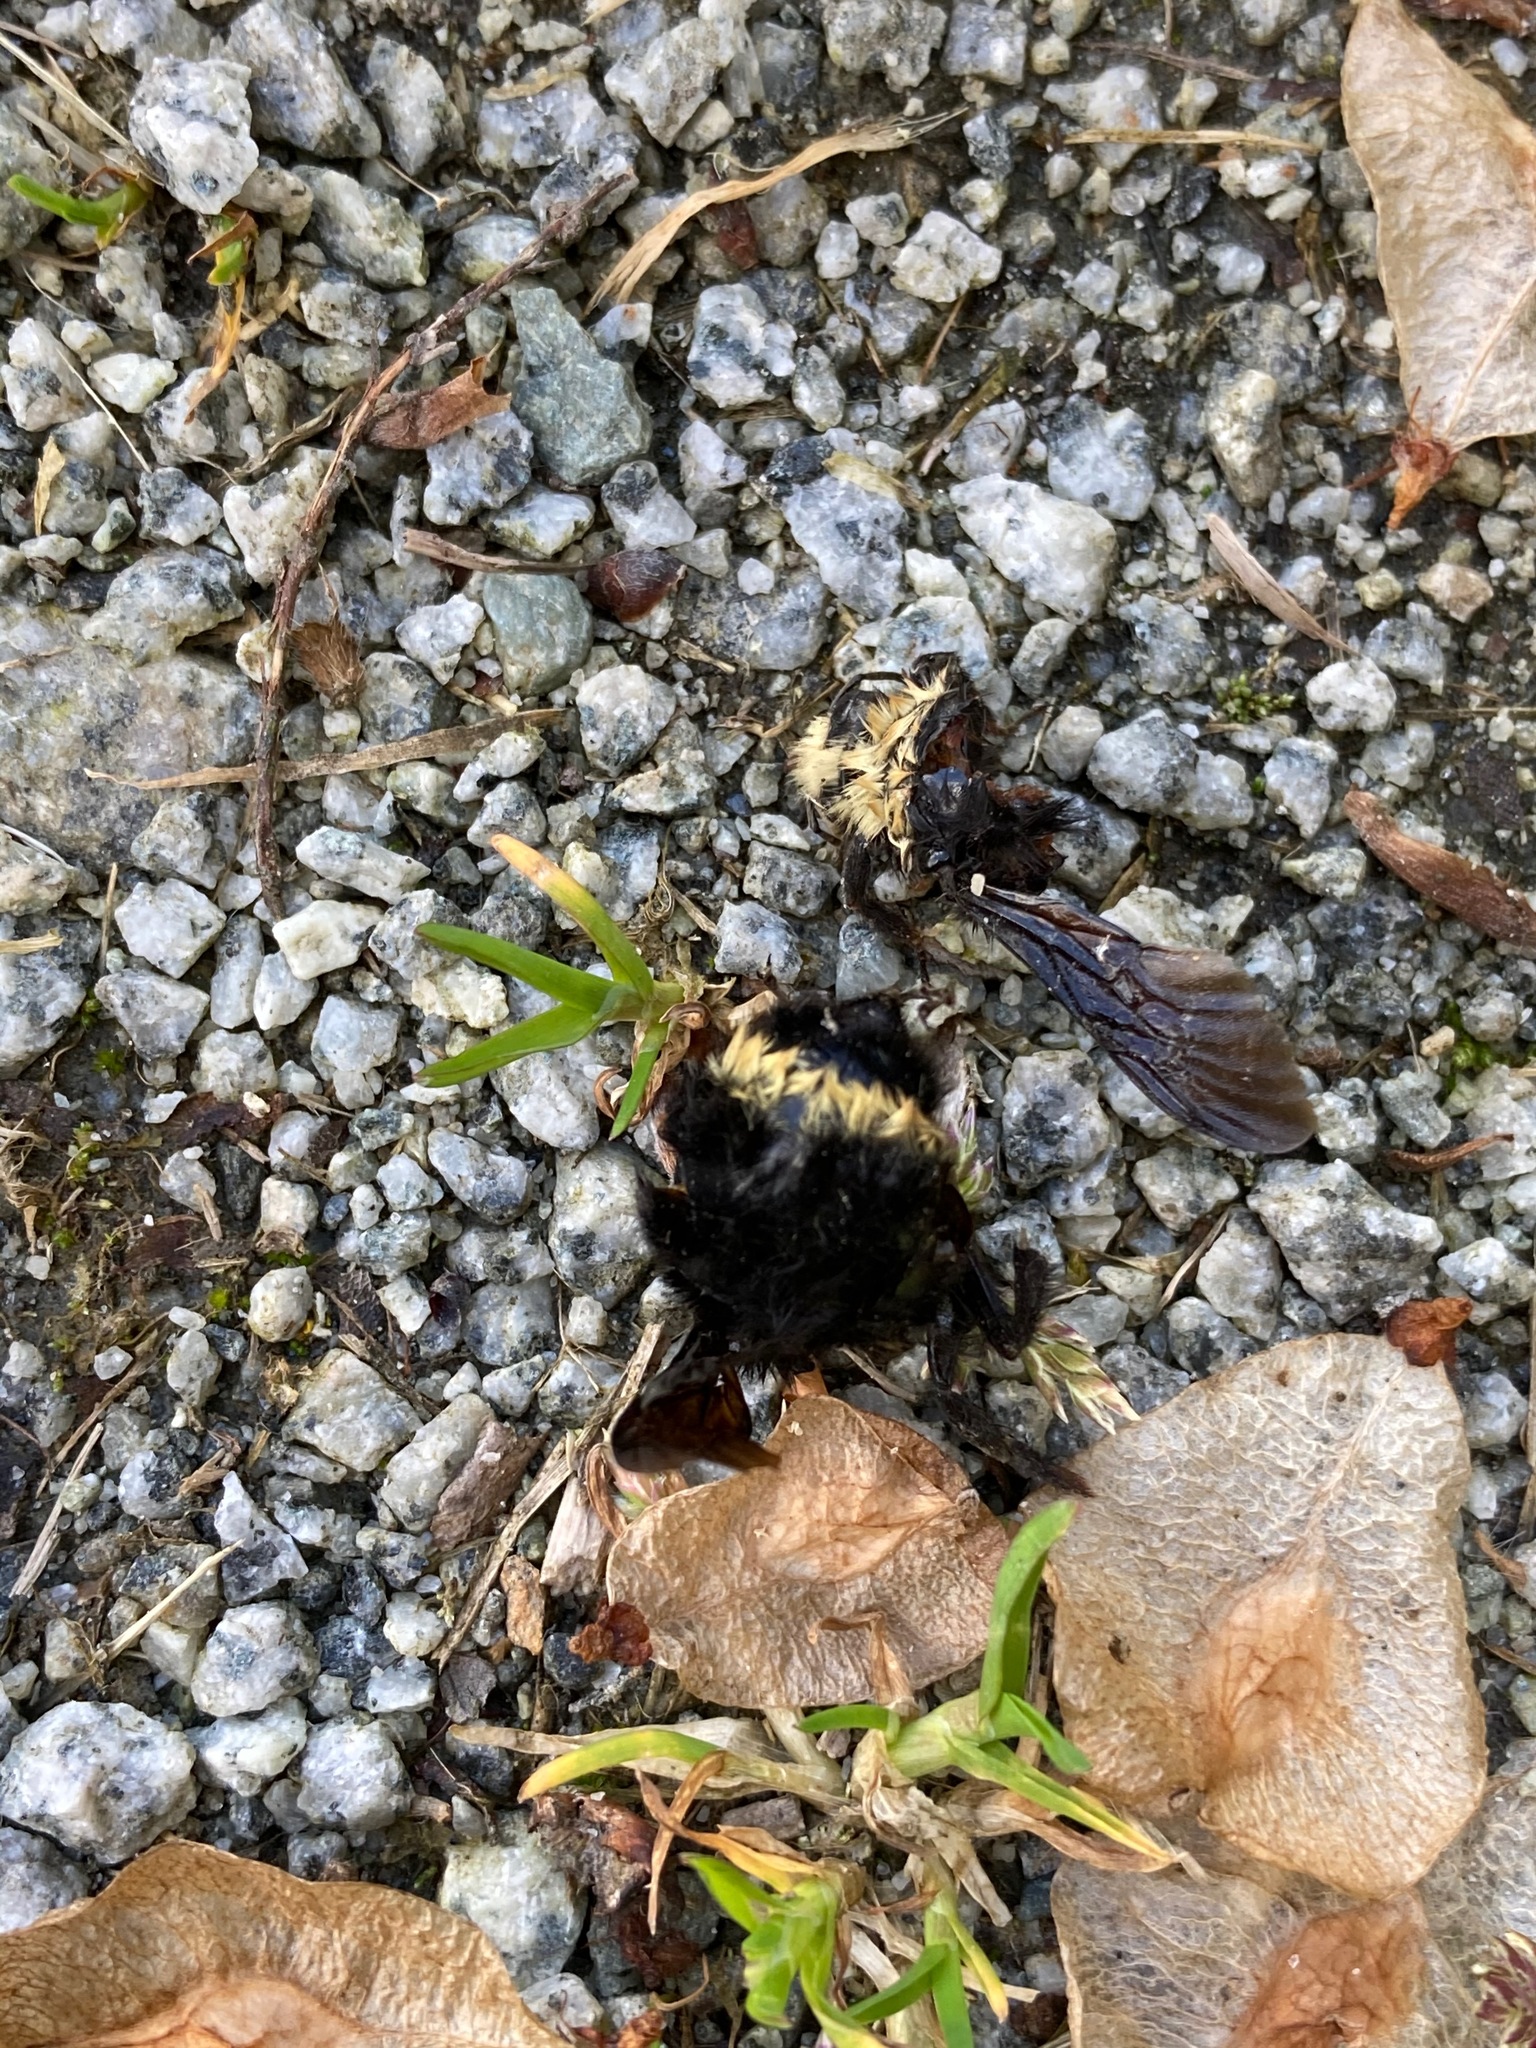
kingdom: Animalia
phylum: Arthropoda
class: Insecta
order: Hymenoptera
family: Apidae
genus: Bombus
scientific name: Bombus vosnesenskii
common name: Vosnesensky bumble bee
